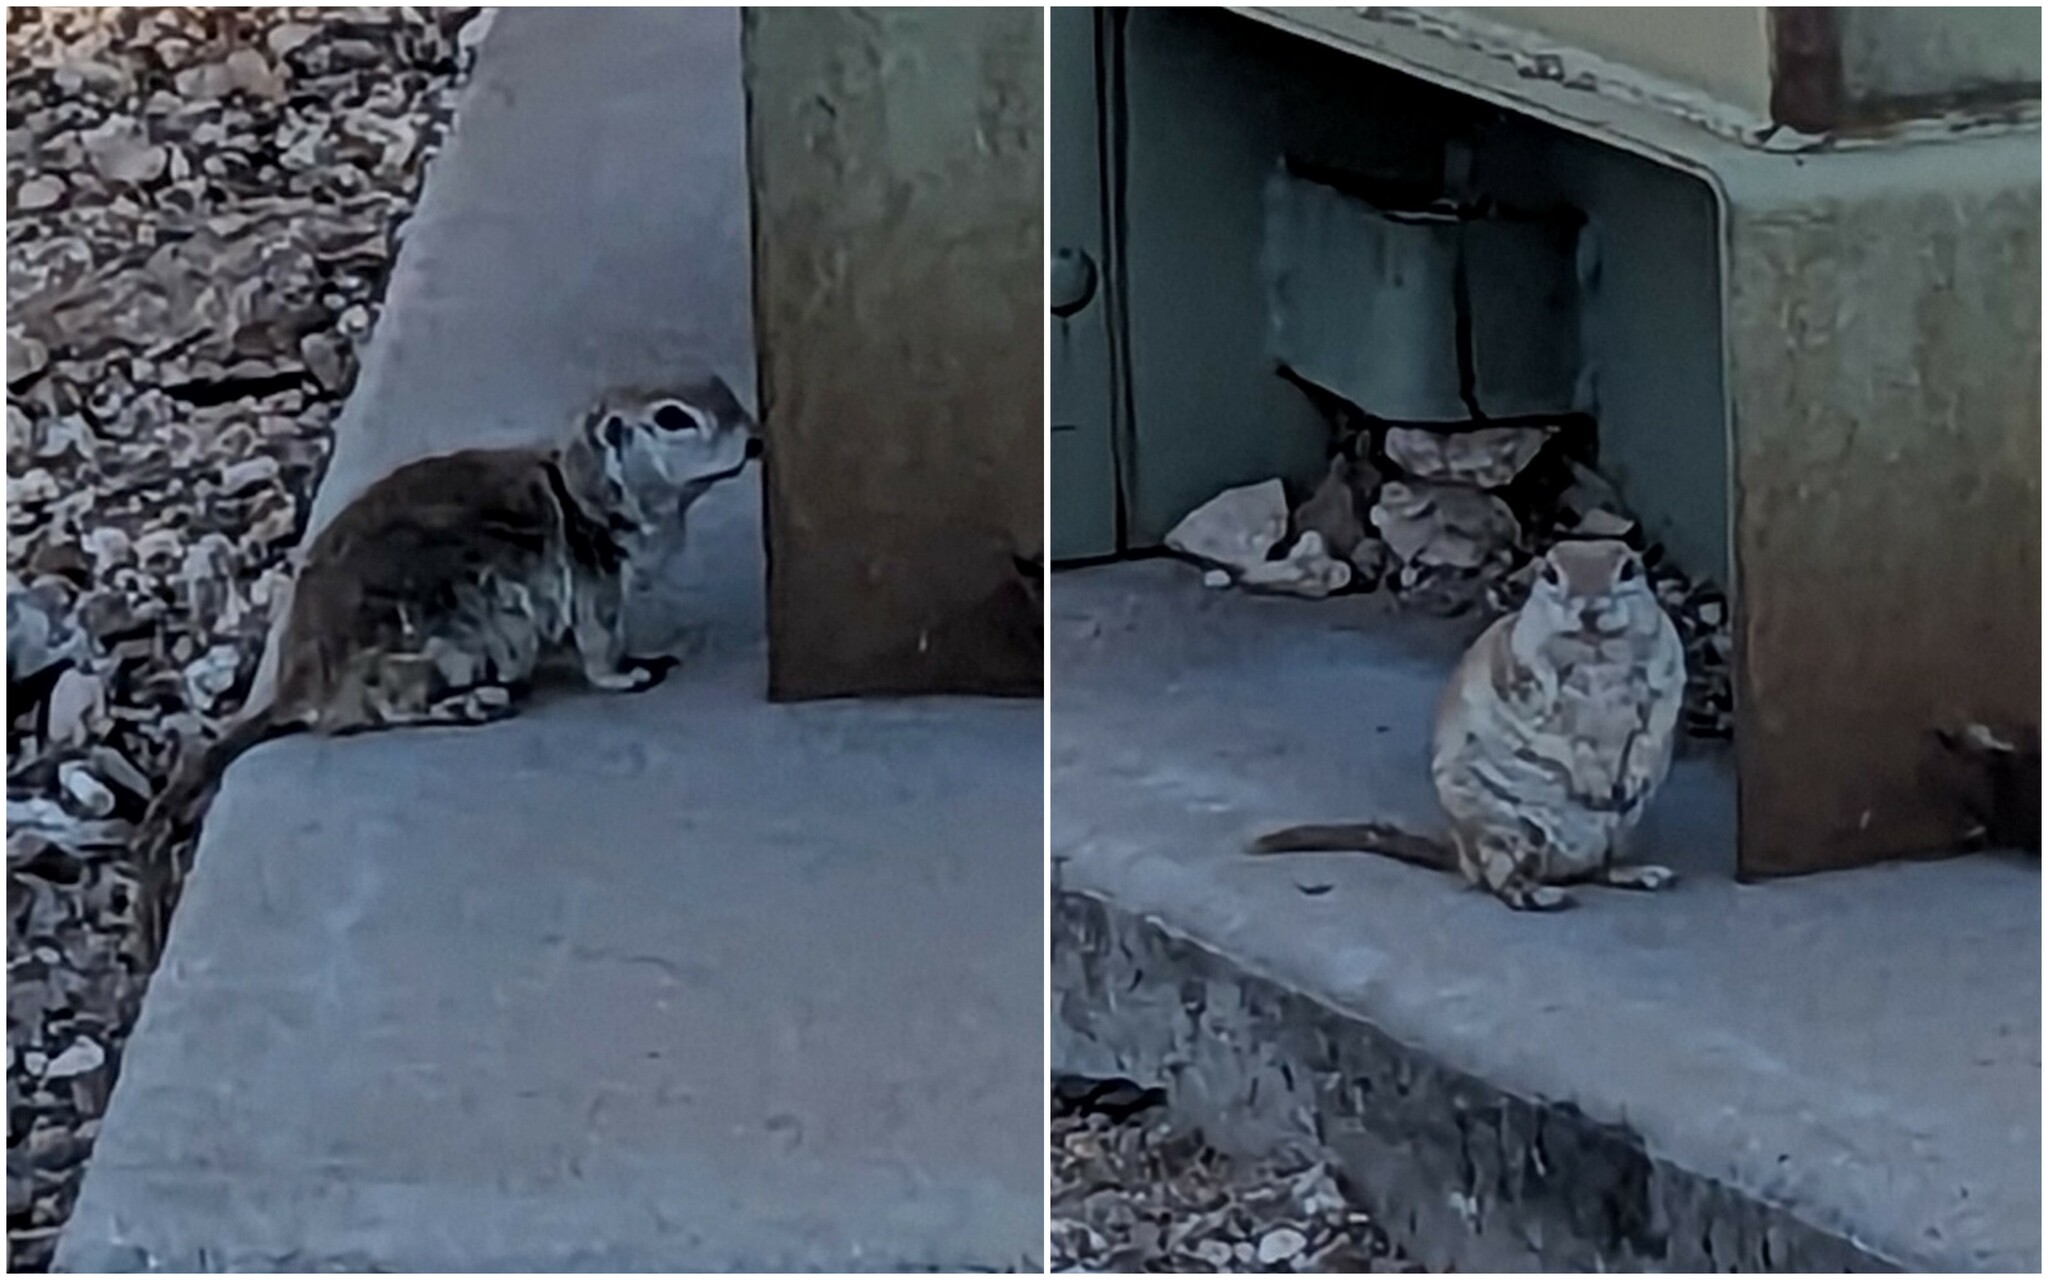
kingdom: Animalia
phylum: Chordata
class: Mammalia
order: Rodentia
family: Sciuridae
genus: Xerospermophilus
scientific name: Xerospermophilus tereticaudus
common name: Round-tailed ground squirrel
